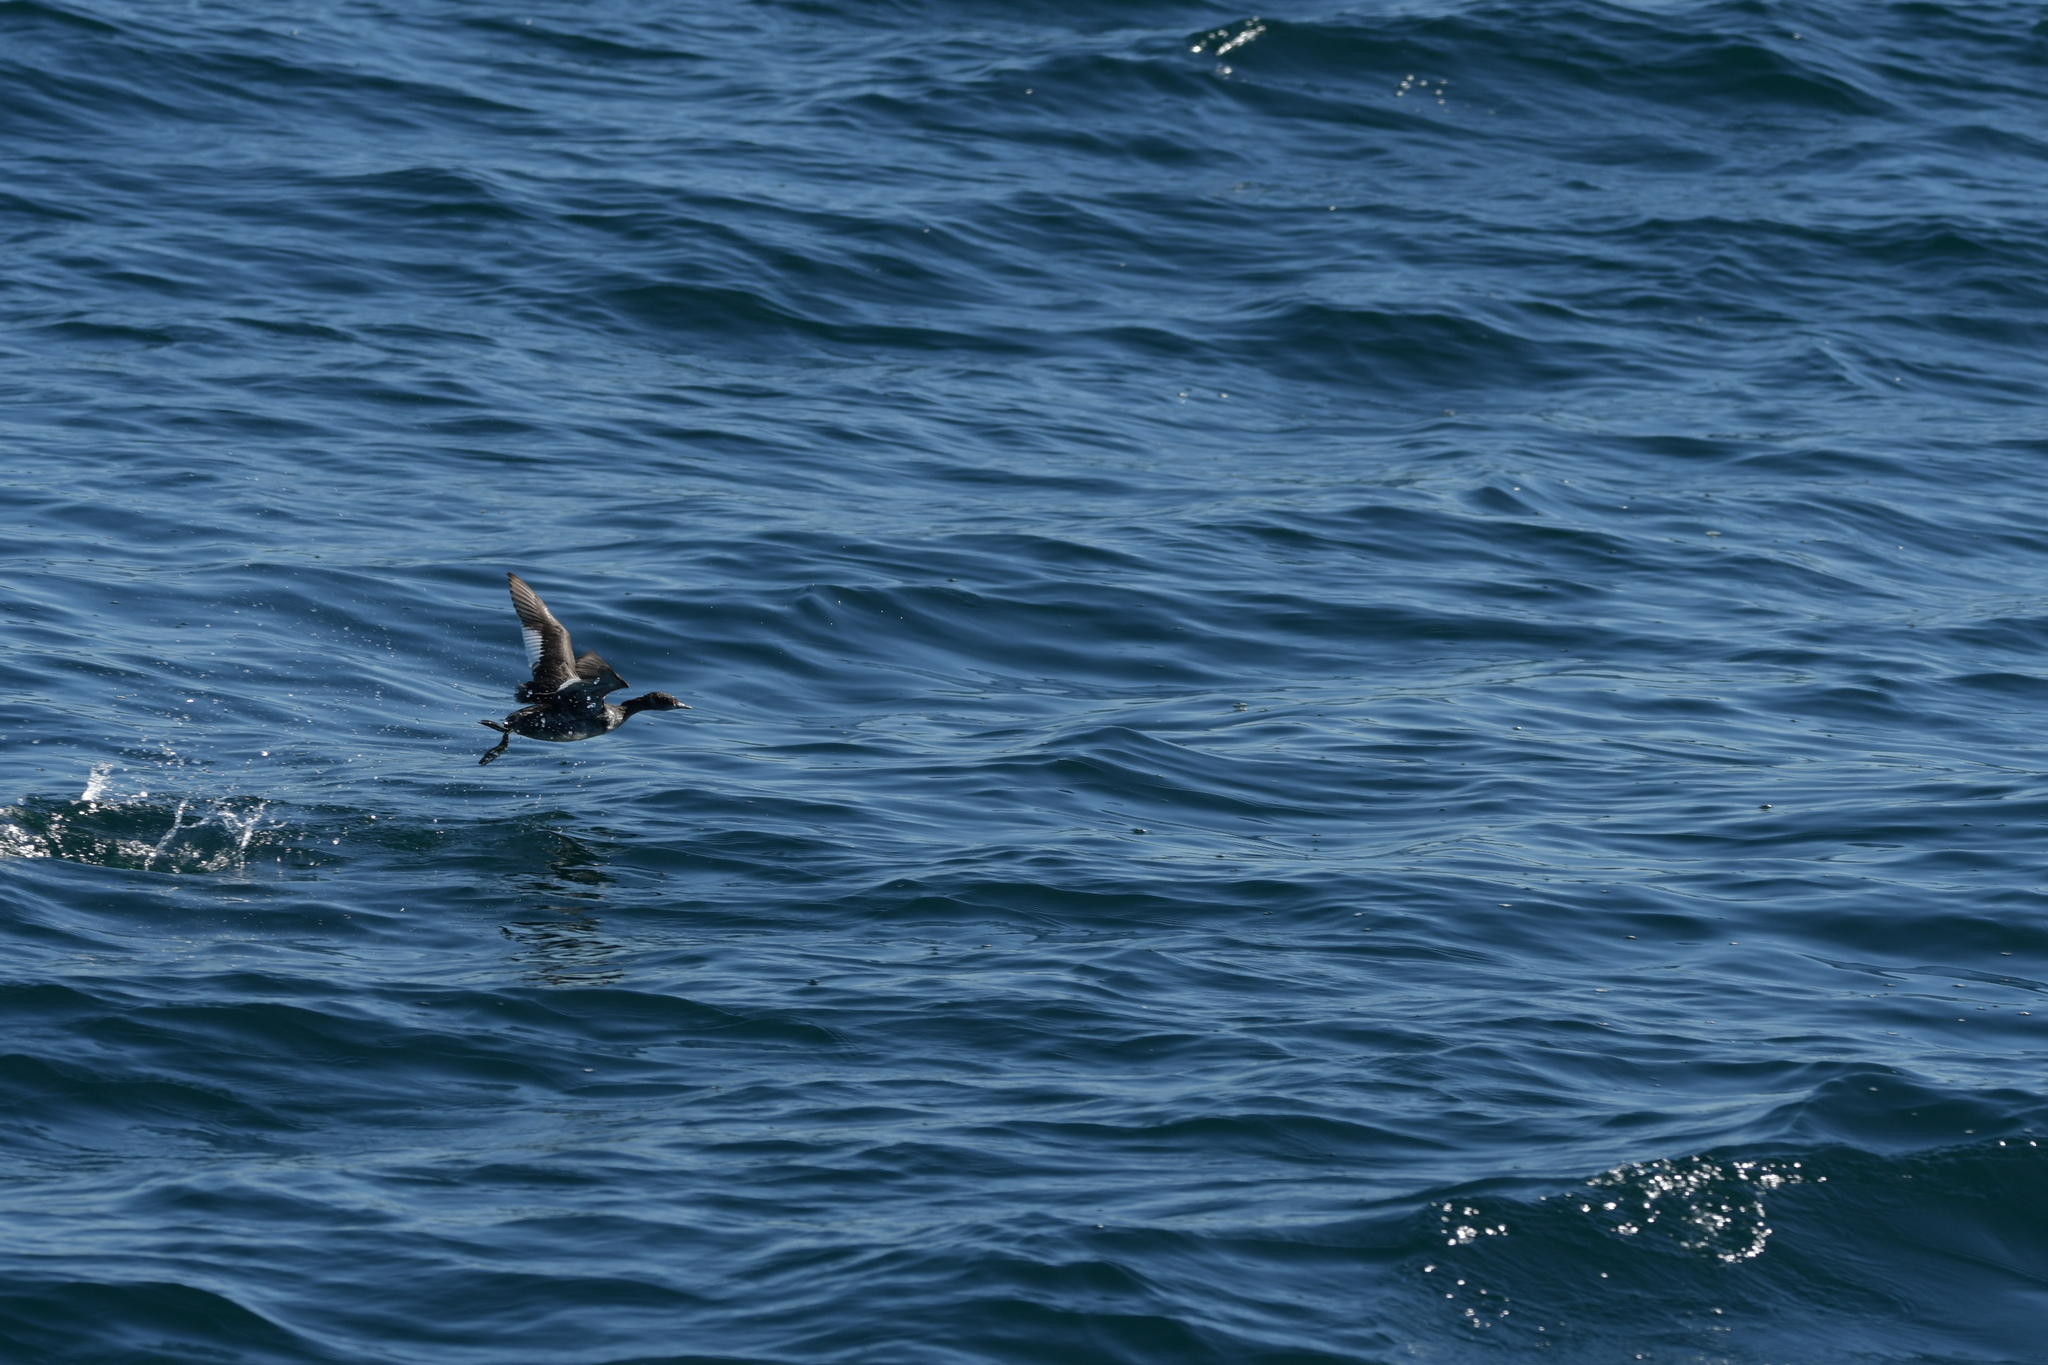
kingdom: Animalia
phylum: Chordata
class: Aves
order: Podicipediformes
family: Podicipedidae
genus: Podiceps
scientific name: Podiceps nigricollis
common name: Black-necked grebe
